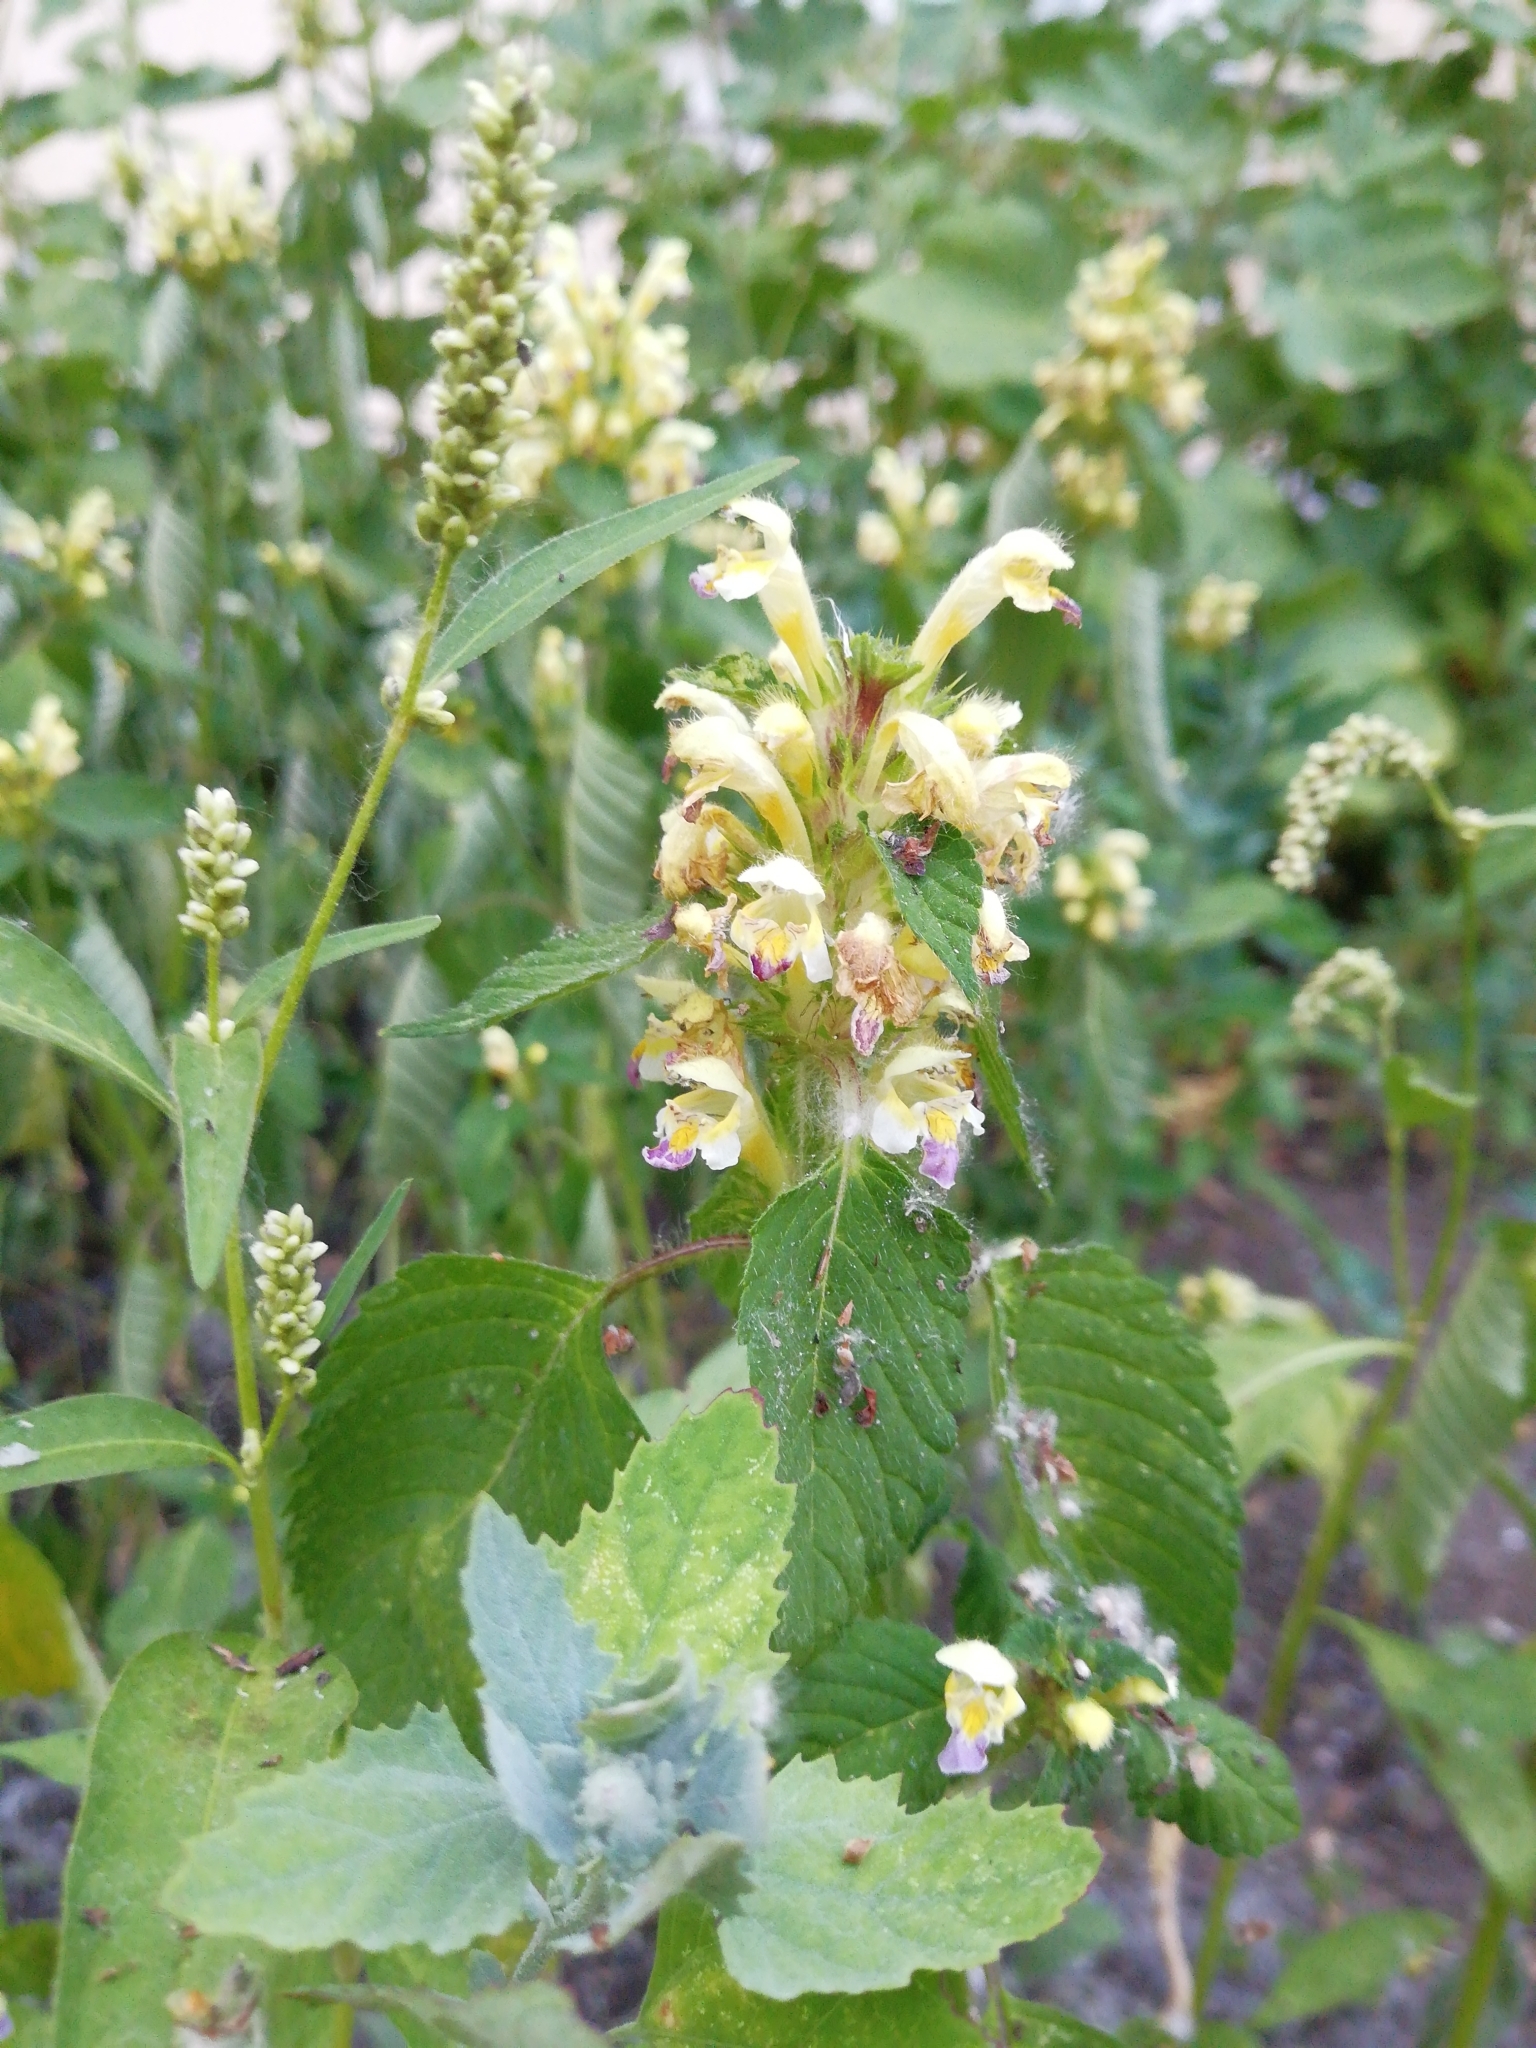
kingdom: Plantae
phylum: Tracheophyta
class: Magnoliopsida
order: Lamiales
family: Lamiaceae
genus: Galeopsis
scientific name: Galeopsis speciosa
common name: Large-flowered hemp-nettle
